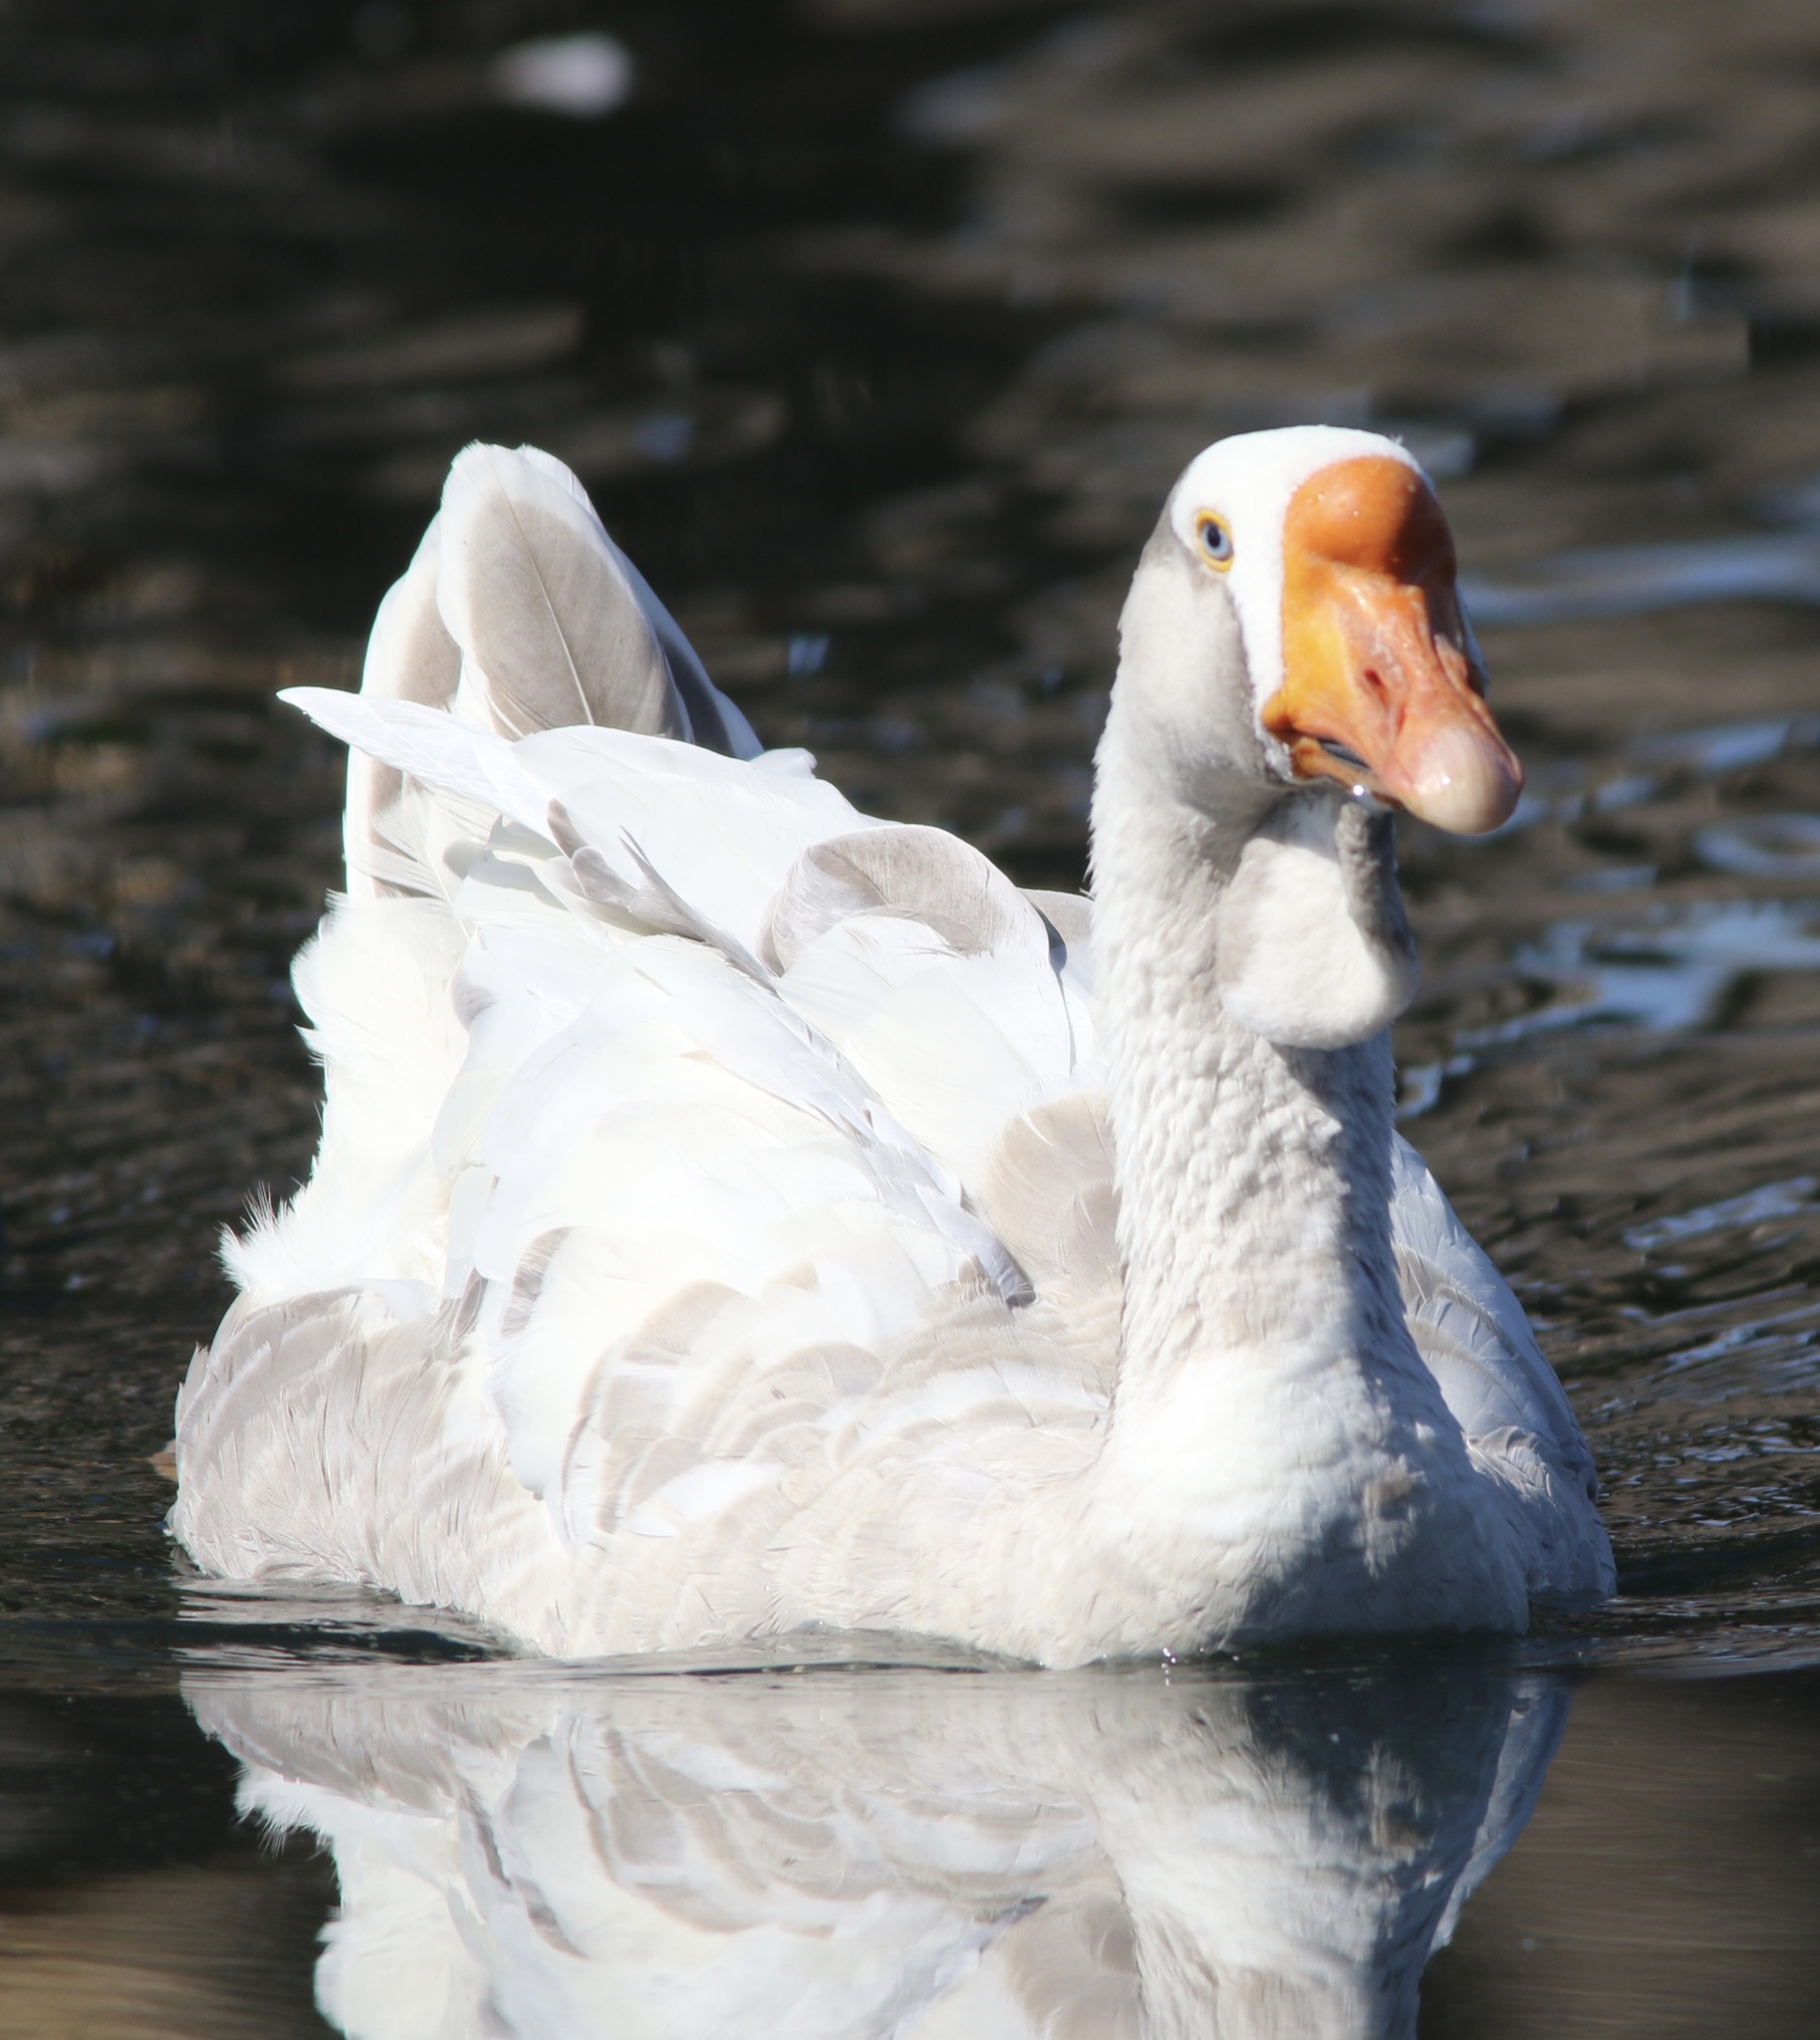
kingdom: Animalia
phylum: Chordata
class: Aves
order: Anseriformes
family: Anatidae
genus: Anser
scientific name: Anser cygnoides
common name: Swan goose
